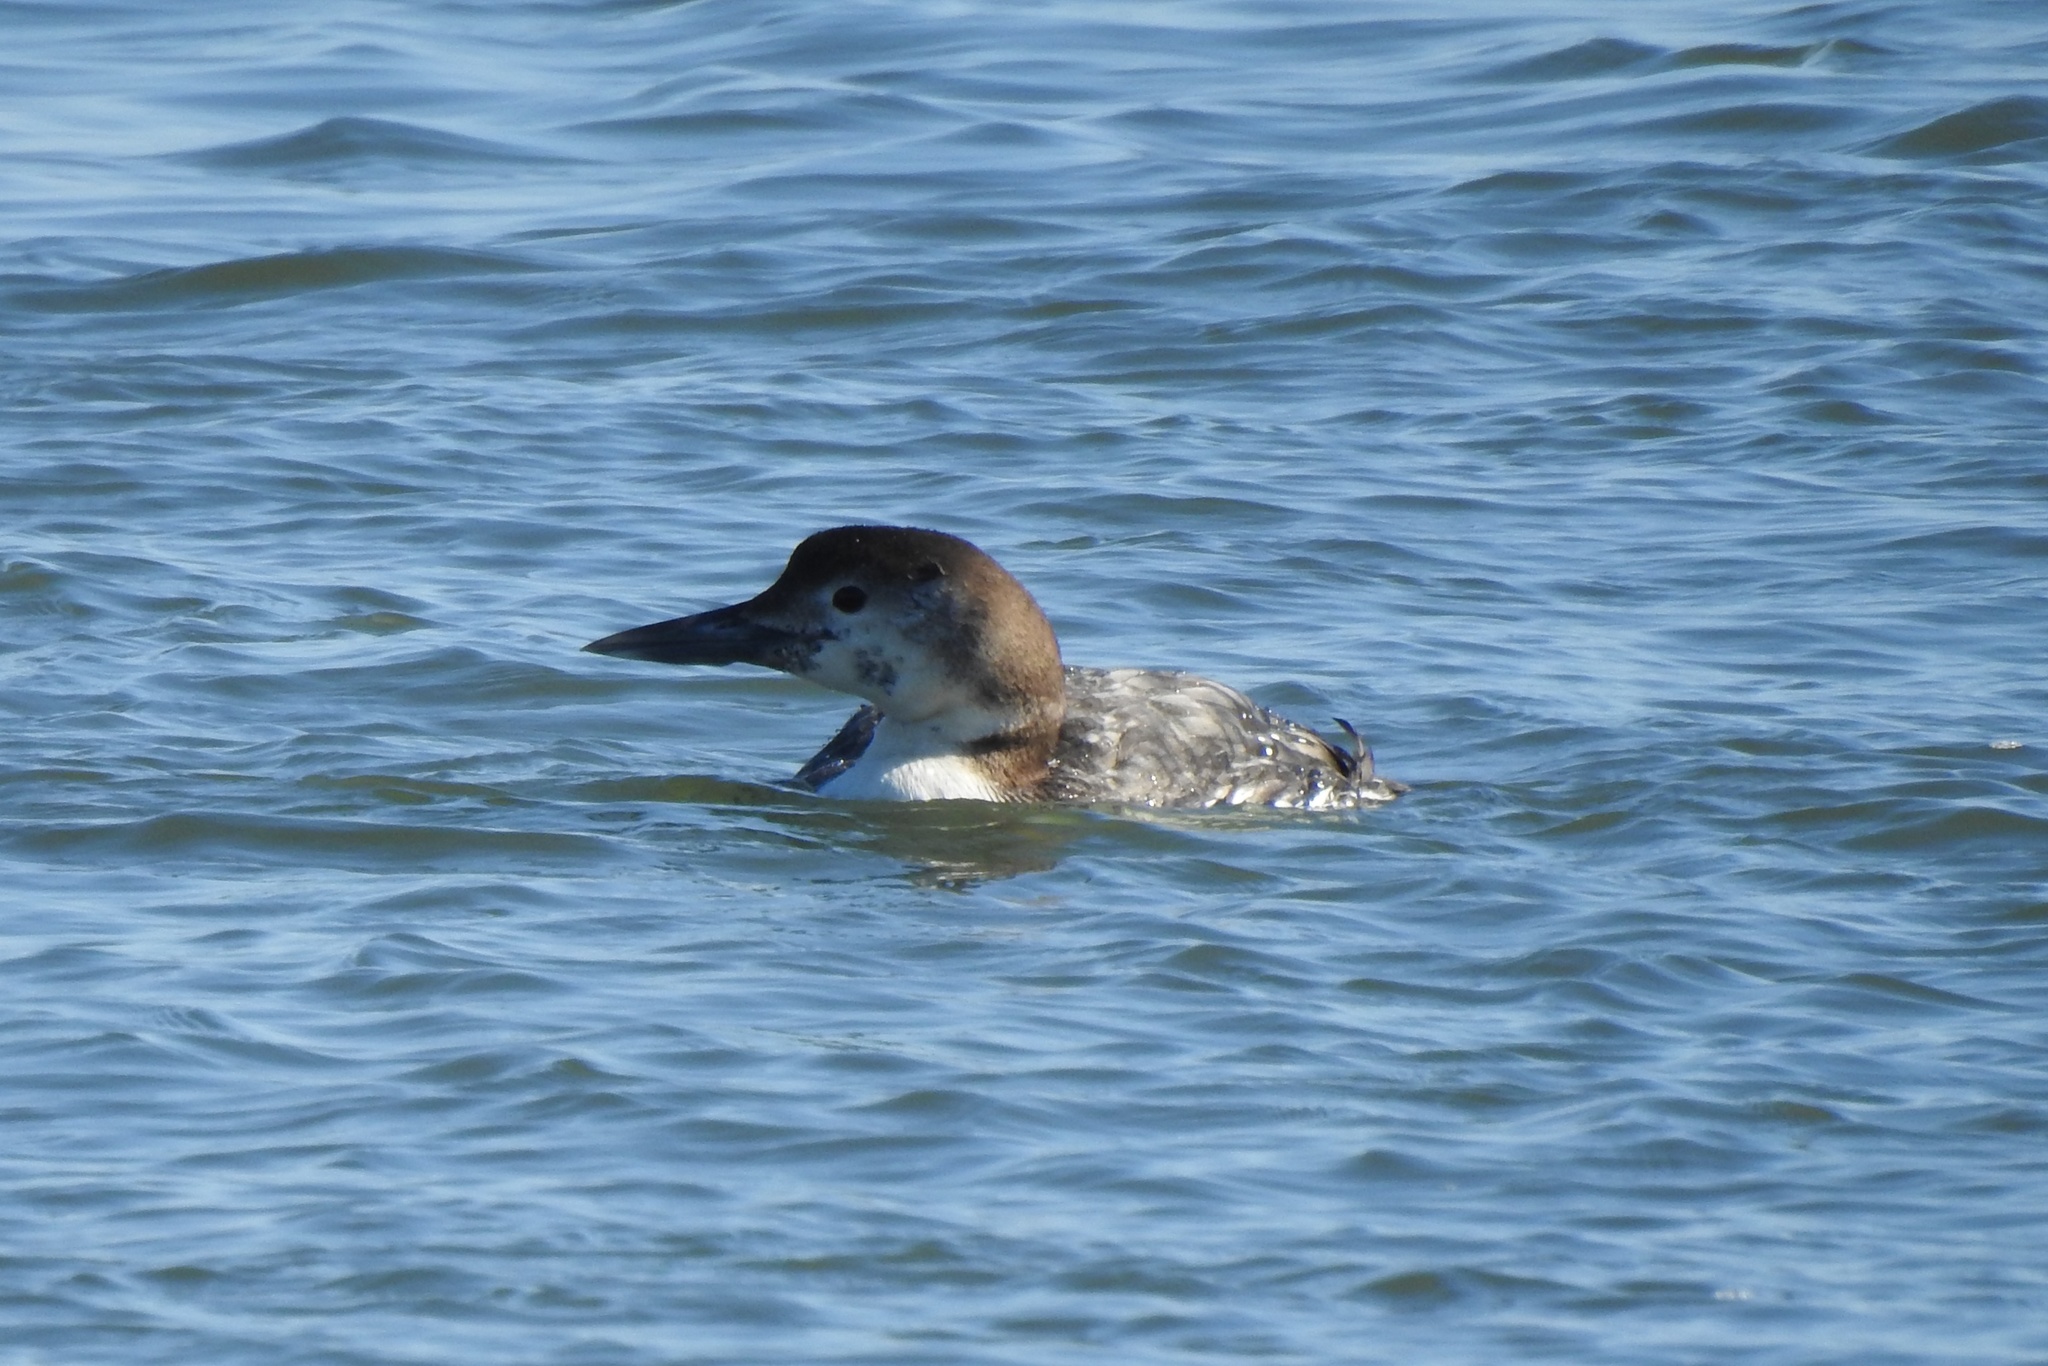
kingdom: Animalia
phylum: Chordata
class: Aves
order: Gaviiformes
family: Gaviidae
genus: Gavia
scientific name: Gavia immer
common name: Common loon
